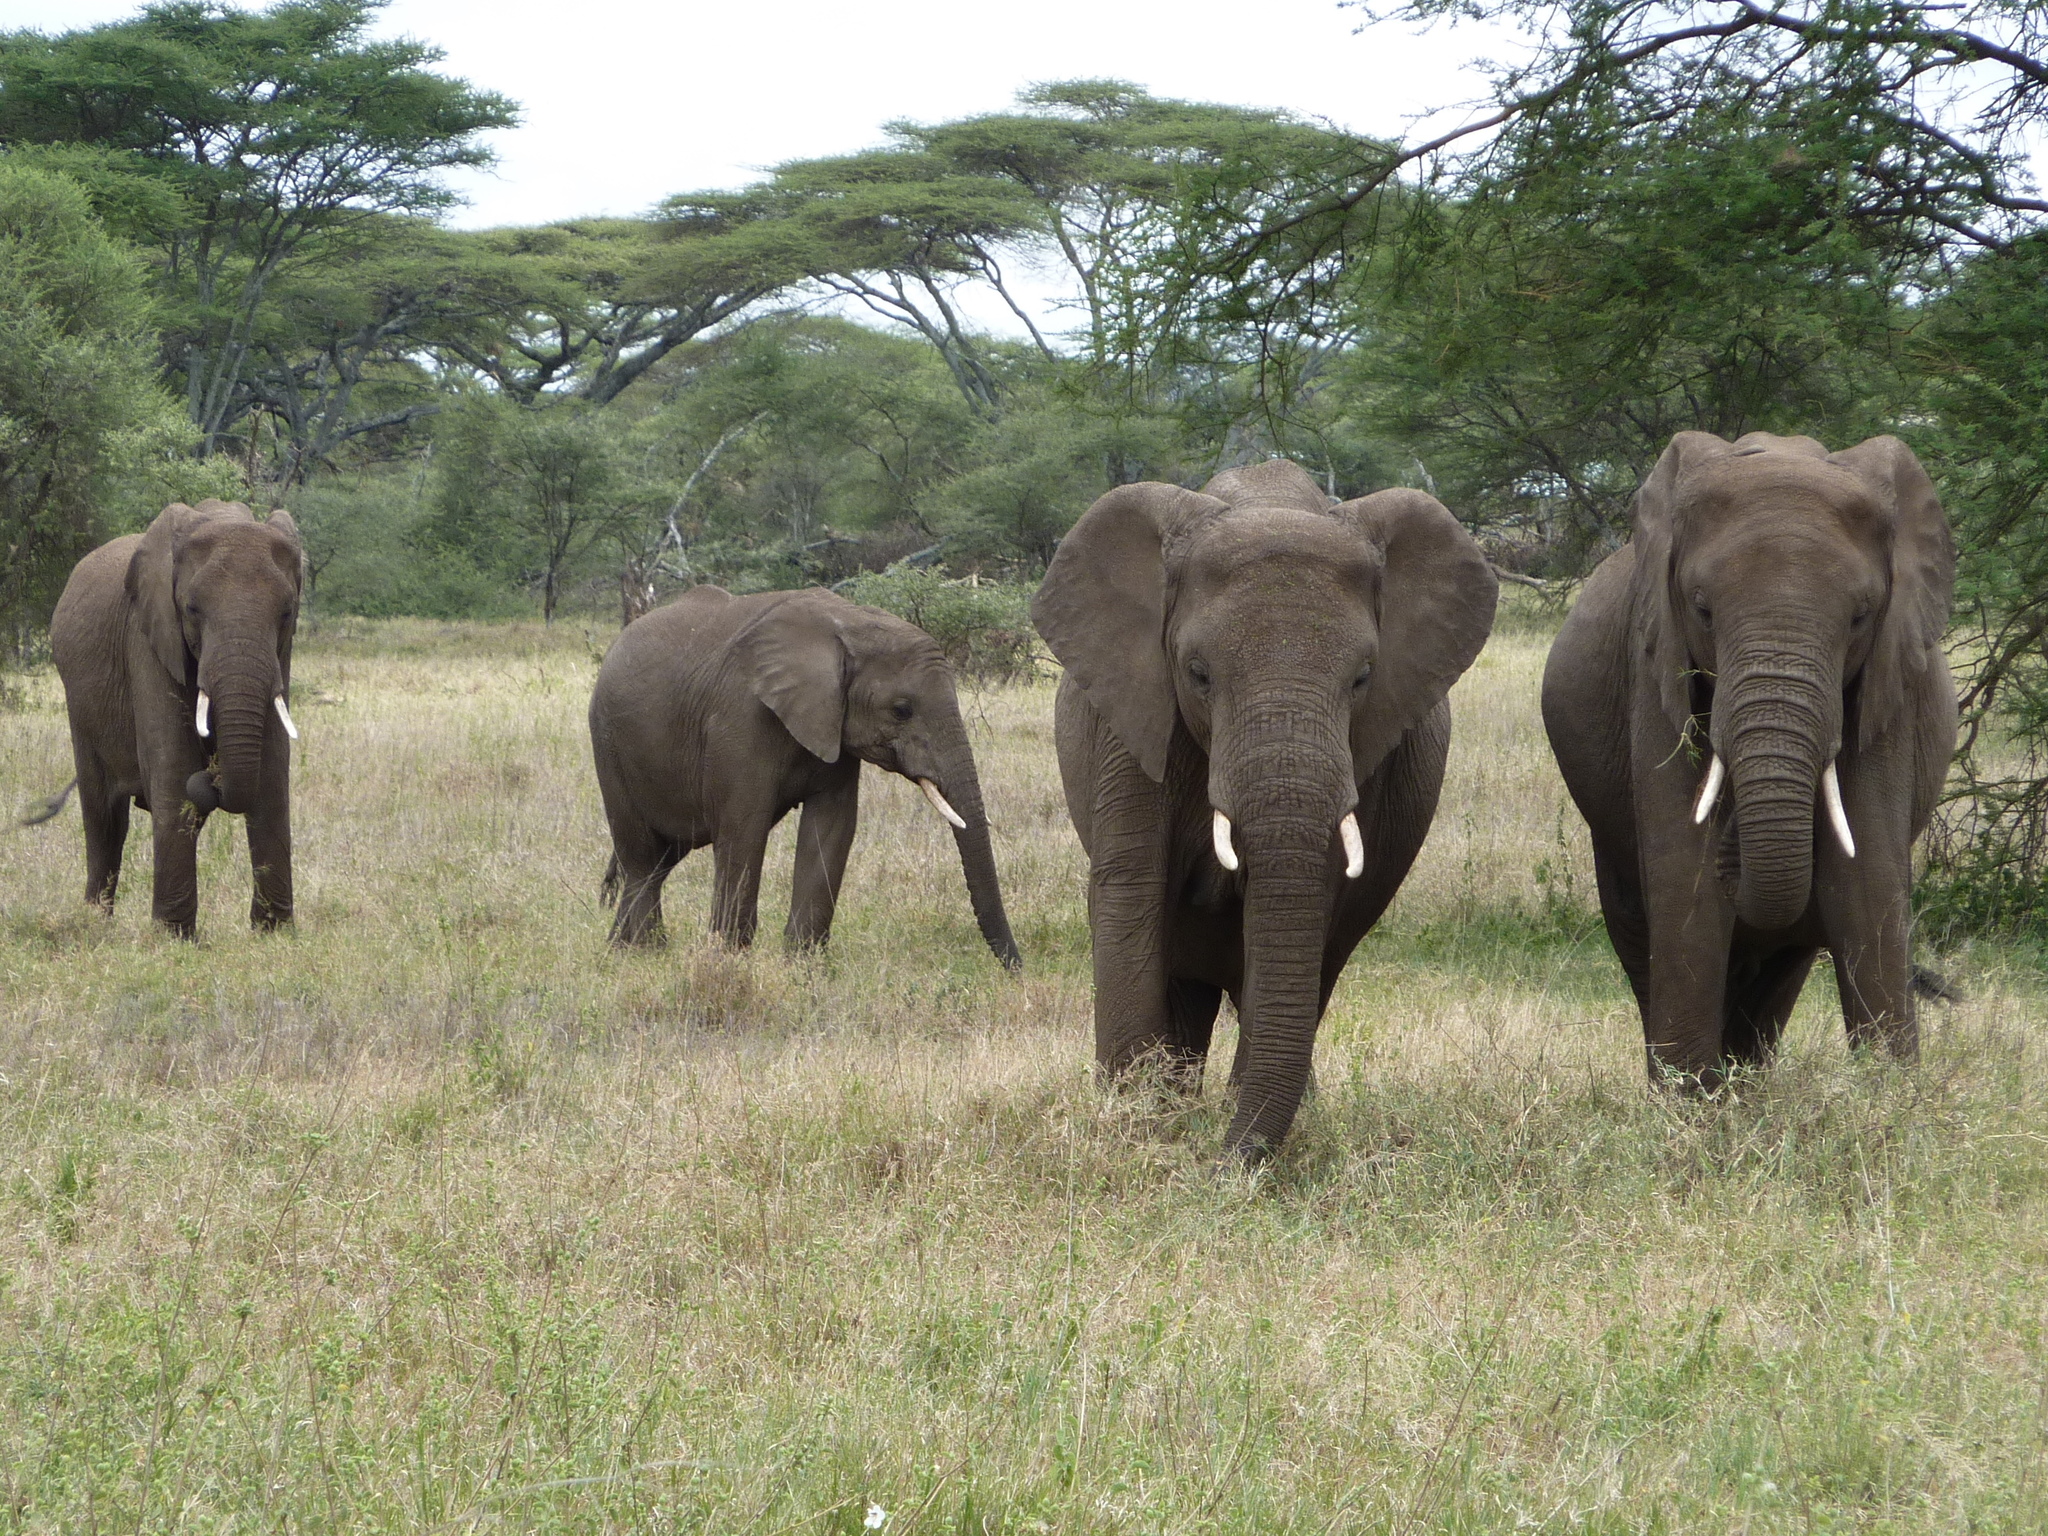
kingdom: Animalia
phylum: Chordata
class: Mammalia
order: Proboscidea
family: Elephantidae
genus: Loxodonta
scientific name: Loxodonta africana
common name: African elephant
